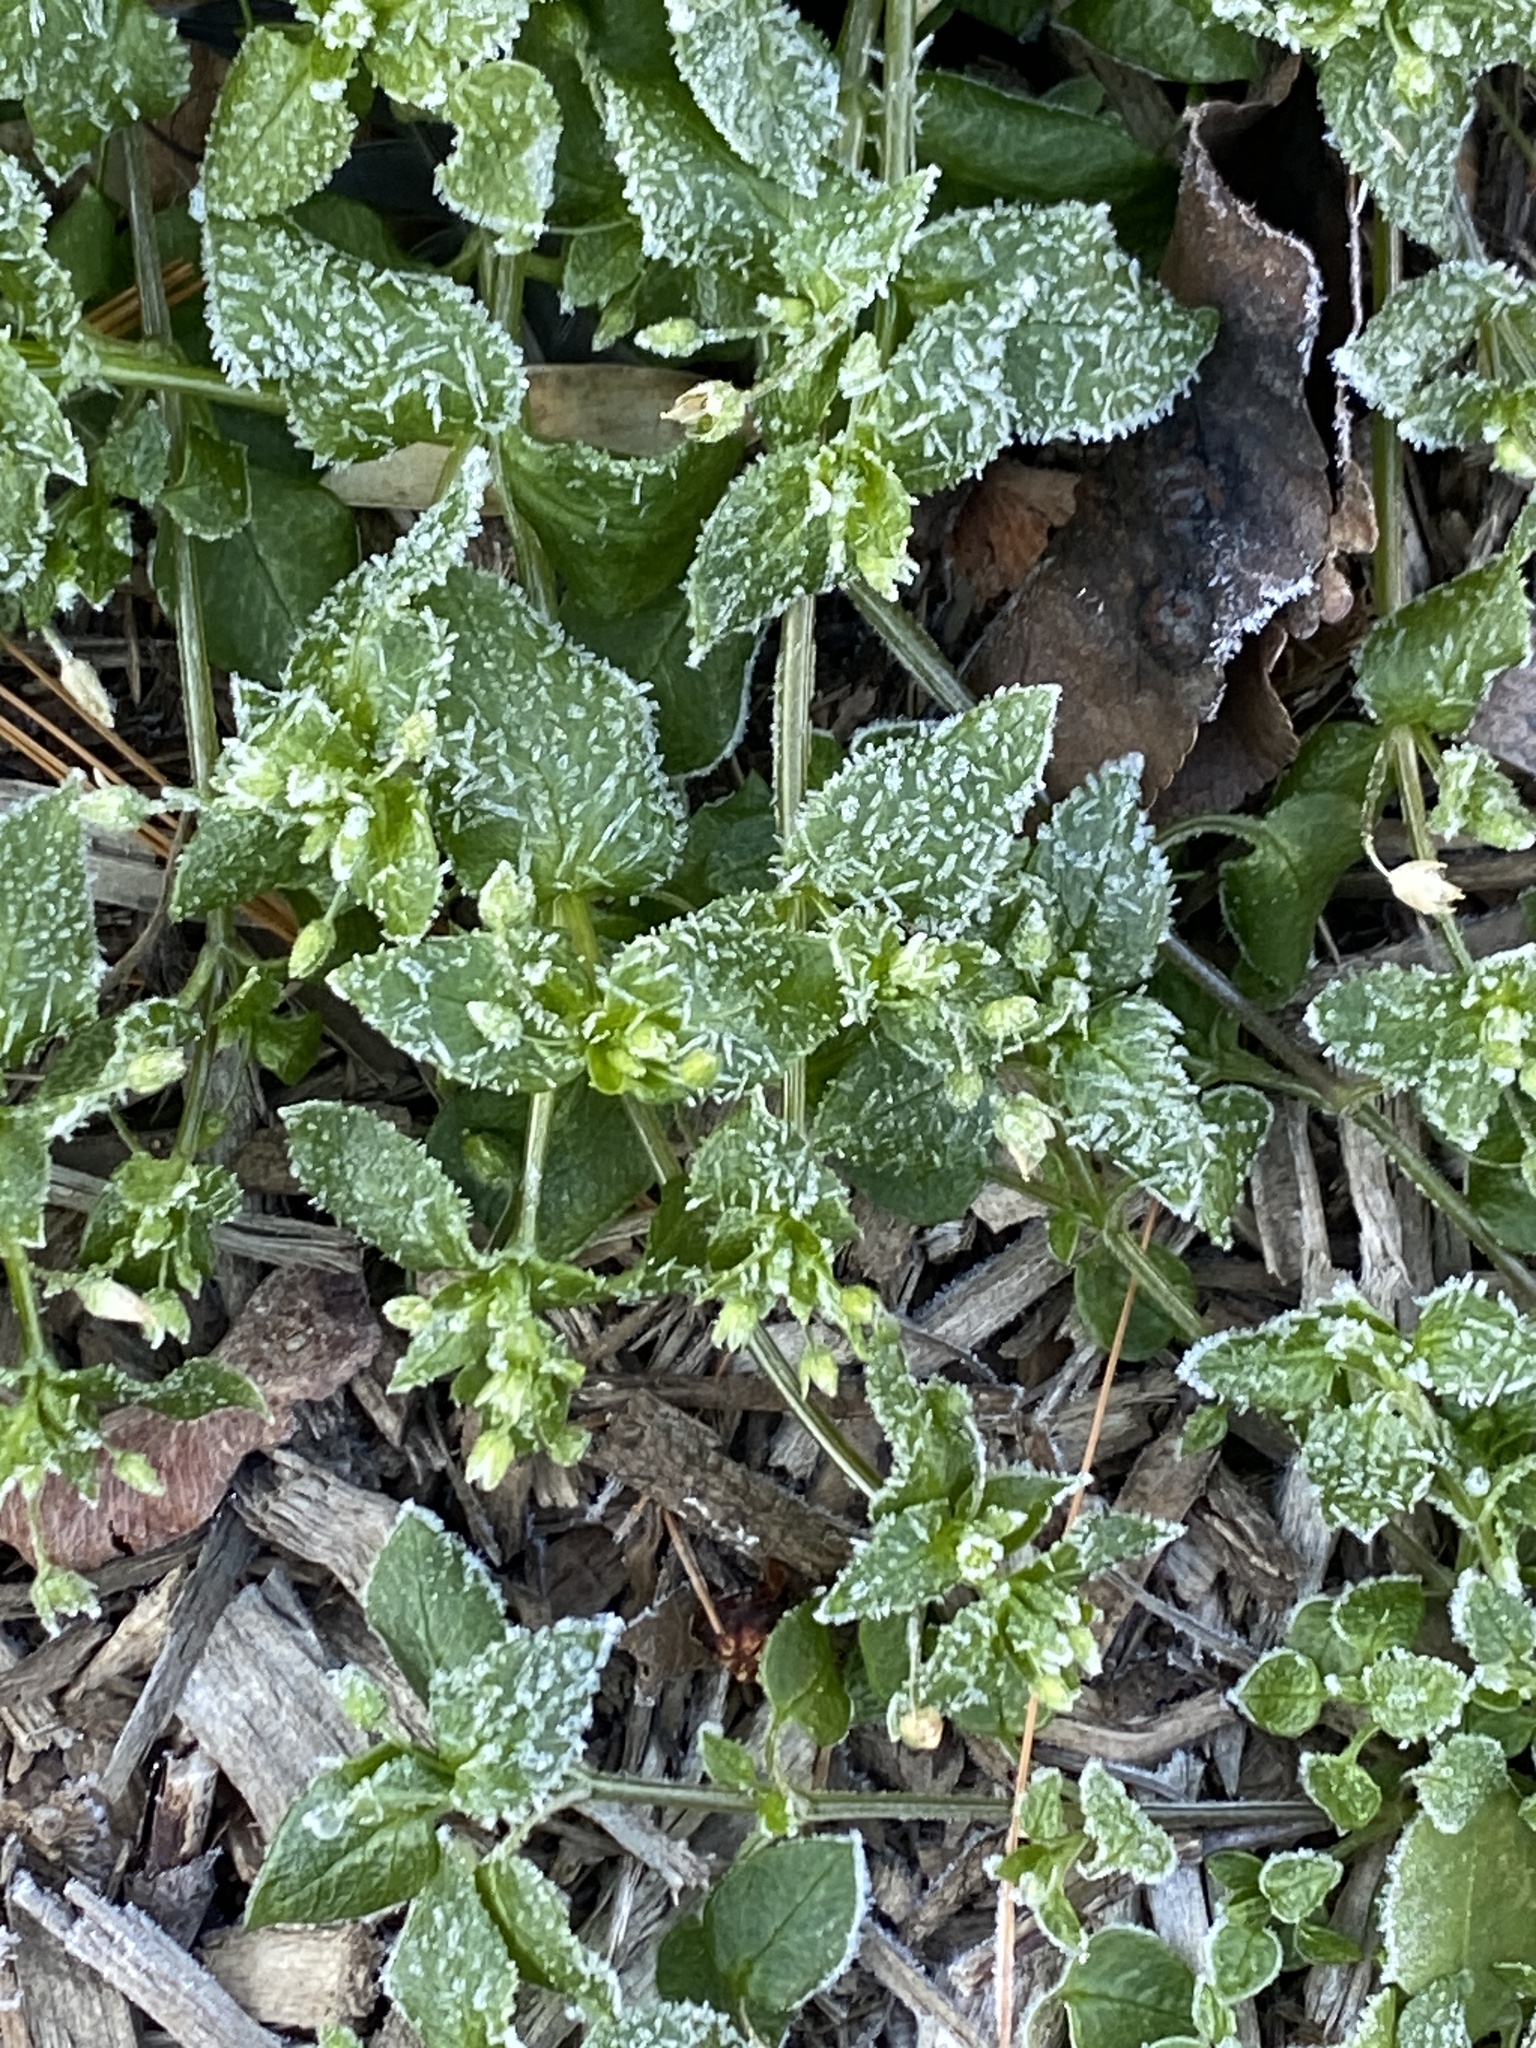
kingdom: Plantae
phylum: Tracheophyta
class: Magnoliopsida
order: Caryophyllales
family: Caryophyllaceae
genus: Stellaria
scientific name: Stellaria media
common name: Common chickweed
